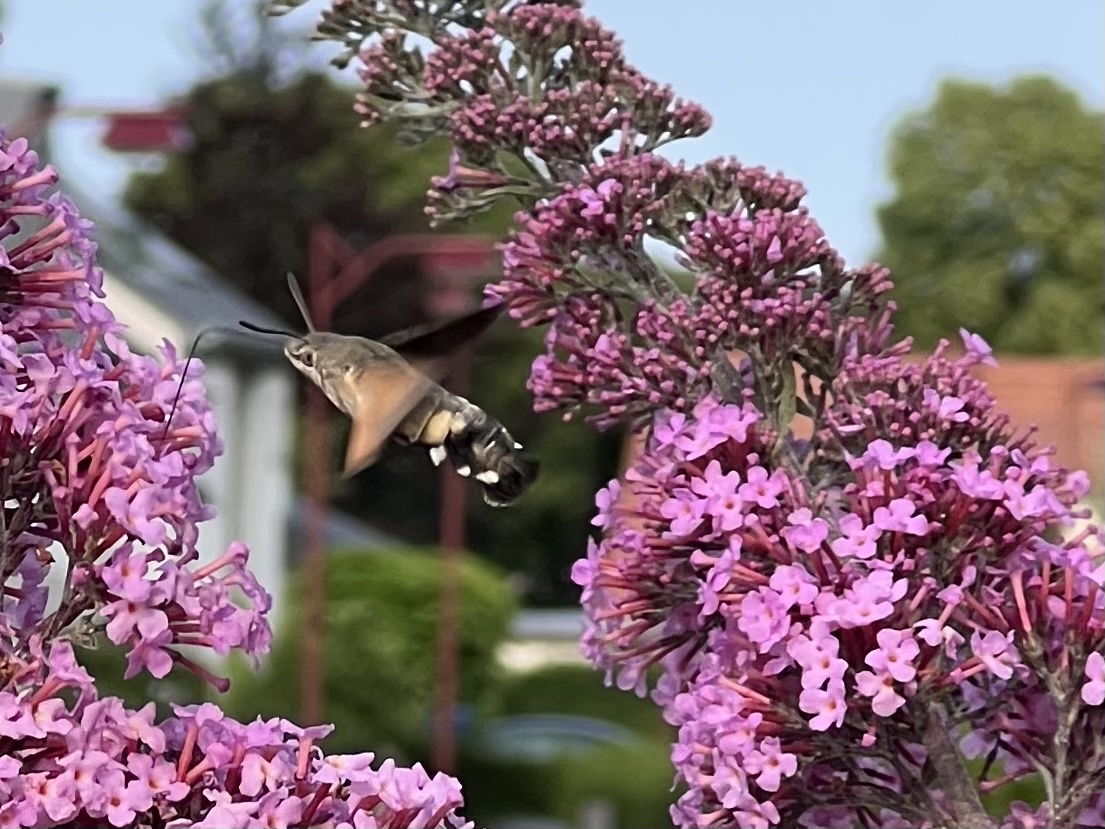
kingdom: Animalia
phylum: Arthropoda
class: Insecta
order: Lepidoptera
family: Sphingidae
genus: Macroglossum
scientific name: Macroglossum stellatarum
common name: Humming-bird hawk-moth
